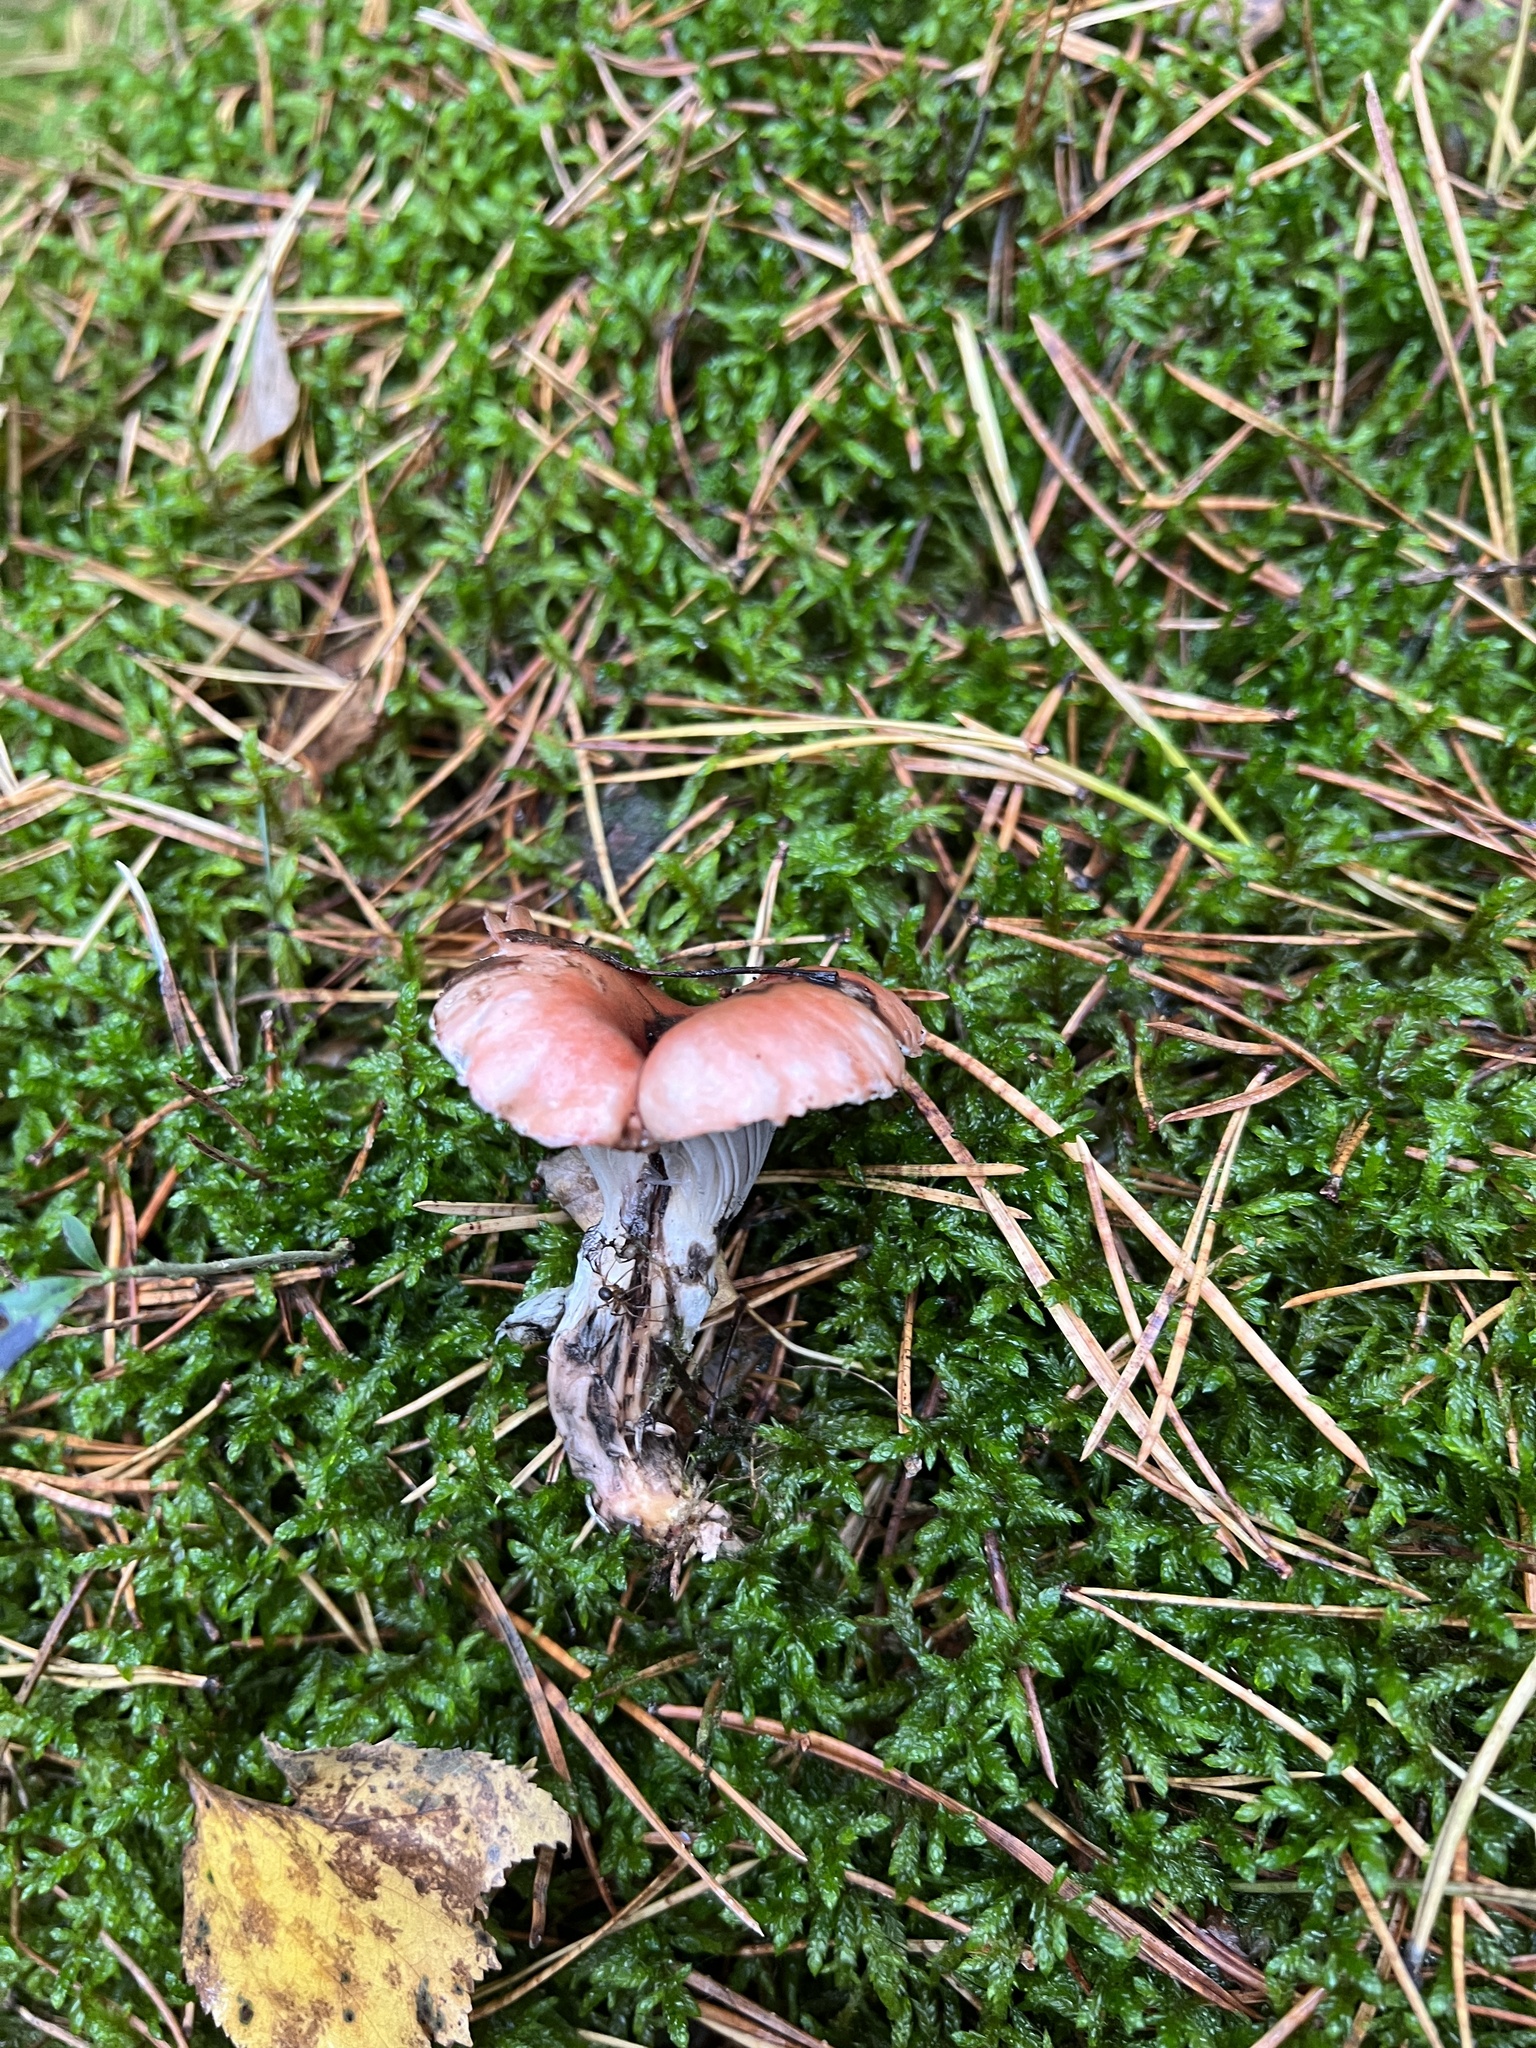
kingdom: Fungi
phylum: Basidiomycota
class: Agaricomycetes
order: Boletales
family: Gomphidiaceae
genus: Gomphidius
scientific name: Gomphidius roseus
